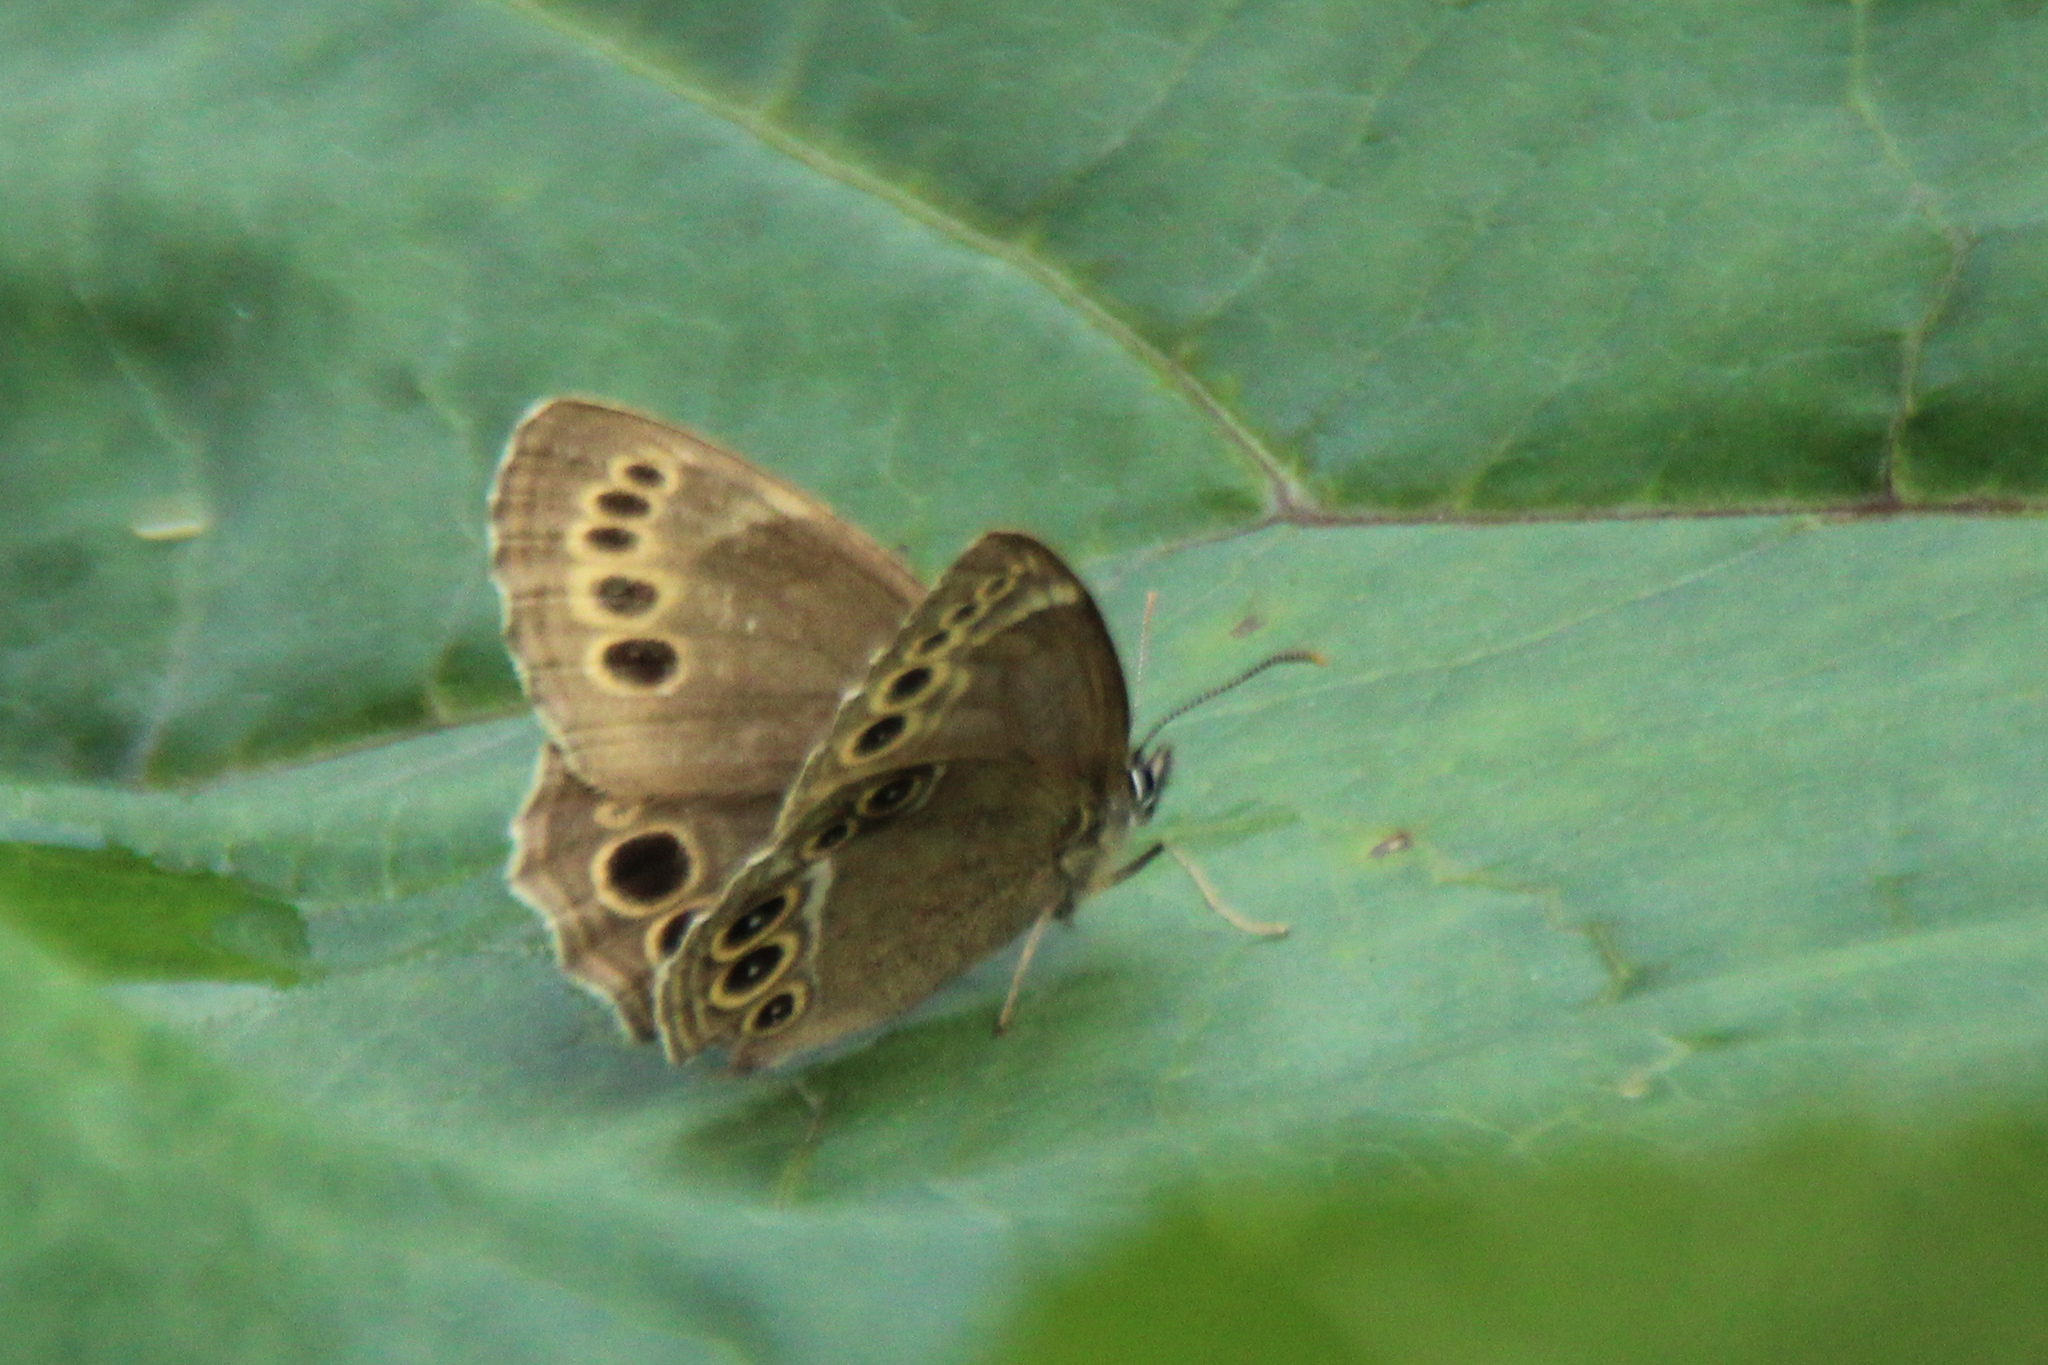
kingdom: Animalia
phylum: Arthropoda
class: Insecta
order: Lepidoptera
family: Nymphalidae
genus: Pararge
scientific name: Pararge Lopinga achine
